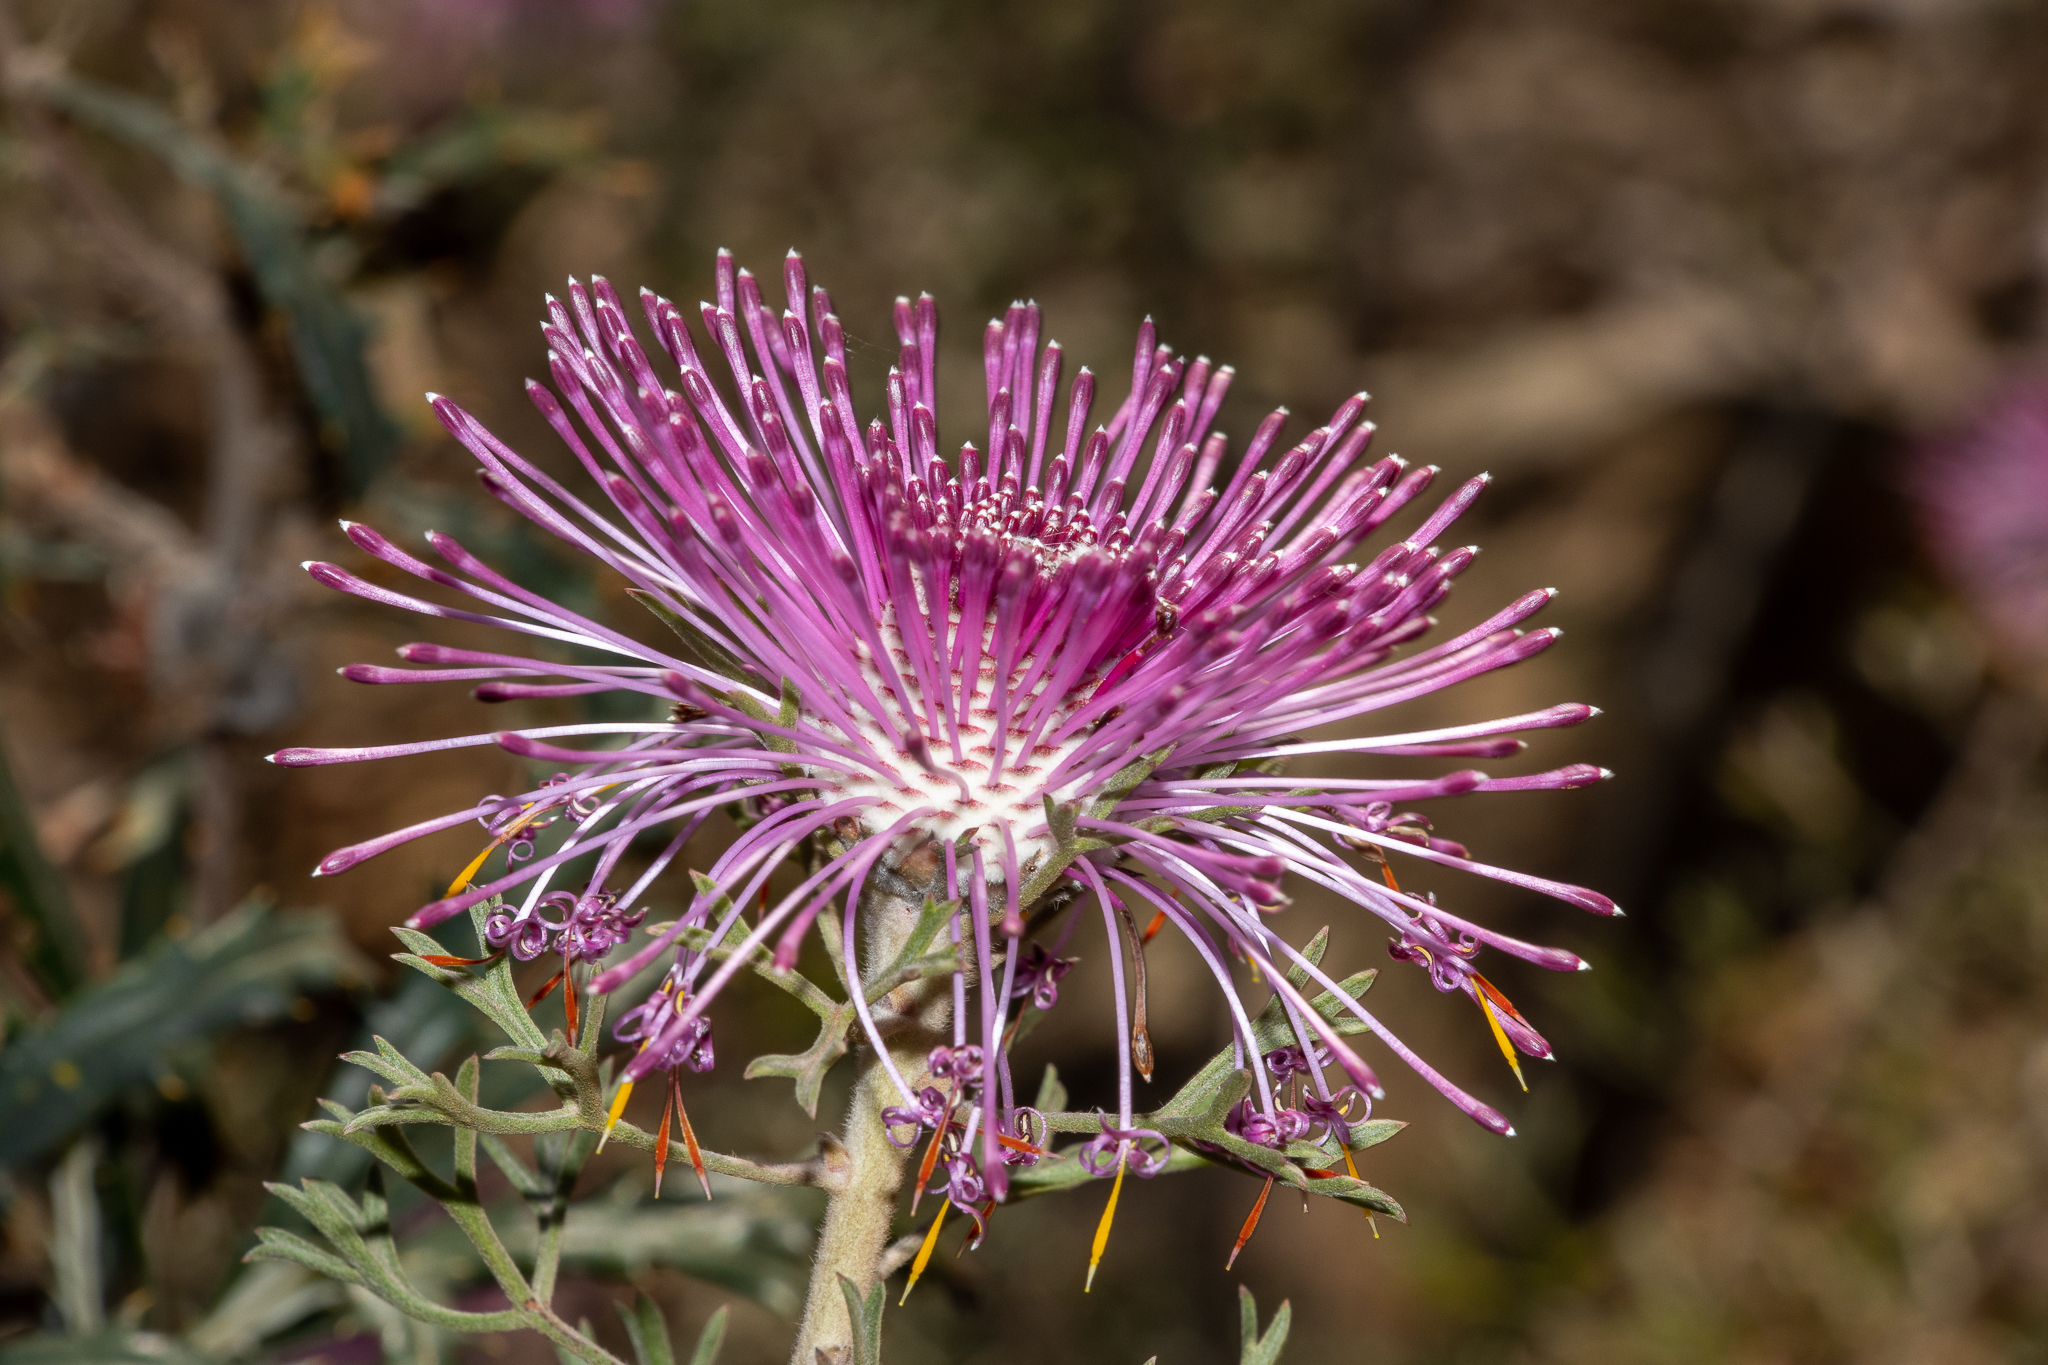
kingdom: Plantae
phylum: Tracheophyta
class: Magnoliopsida
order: Proteales
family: Proteaceae
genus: Isopogon
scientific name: Isopogon dubius
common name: Pincushion-coneflower
